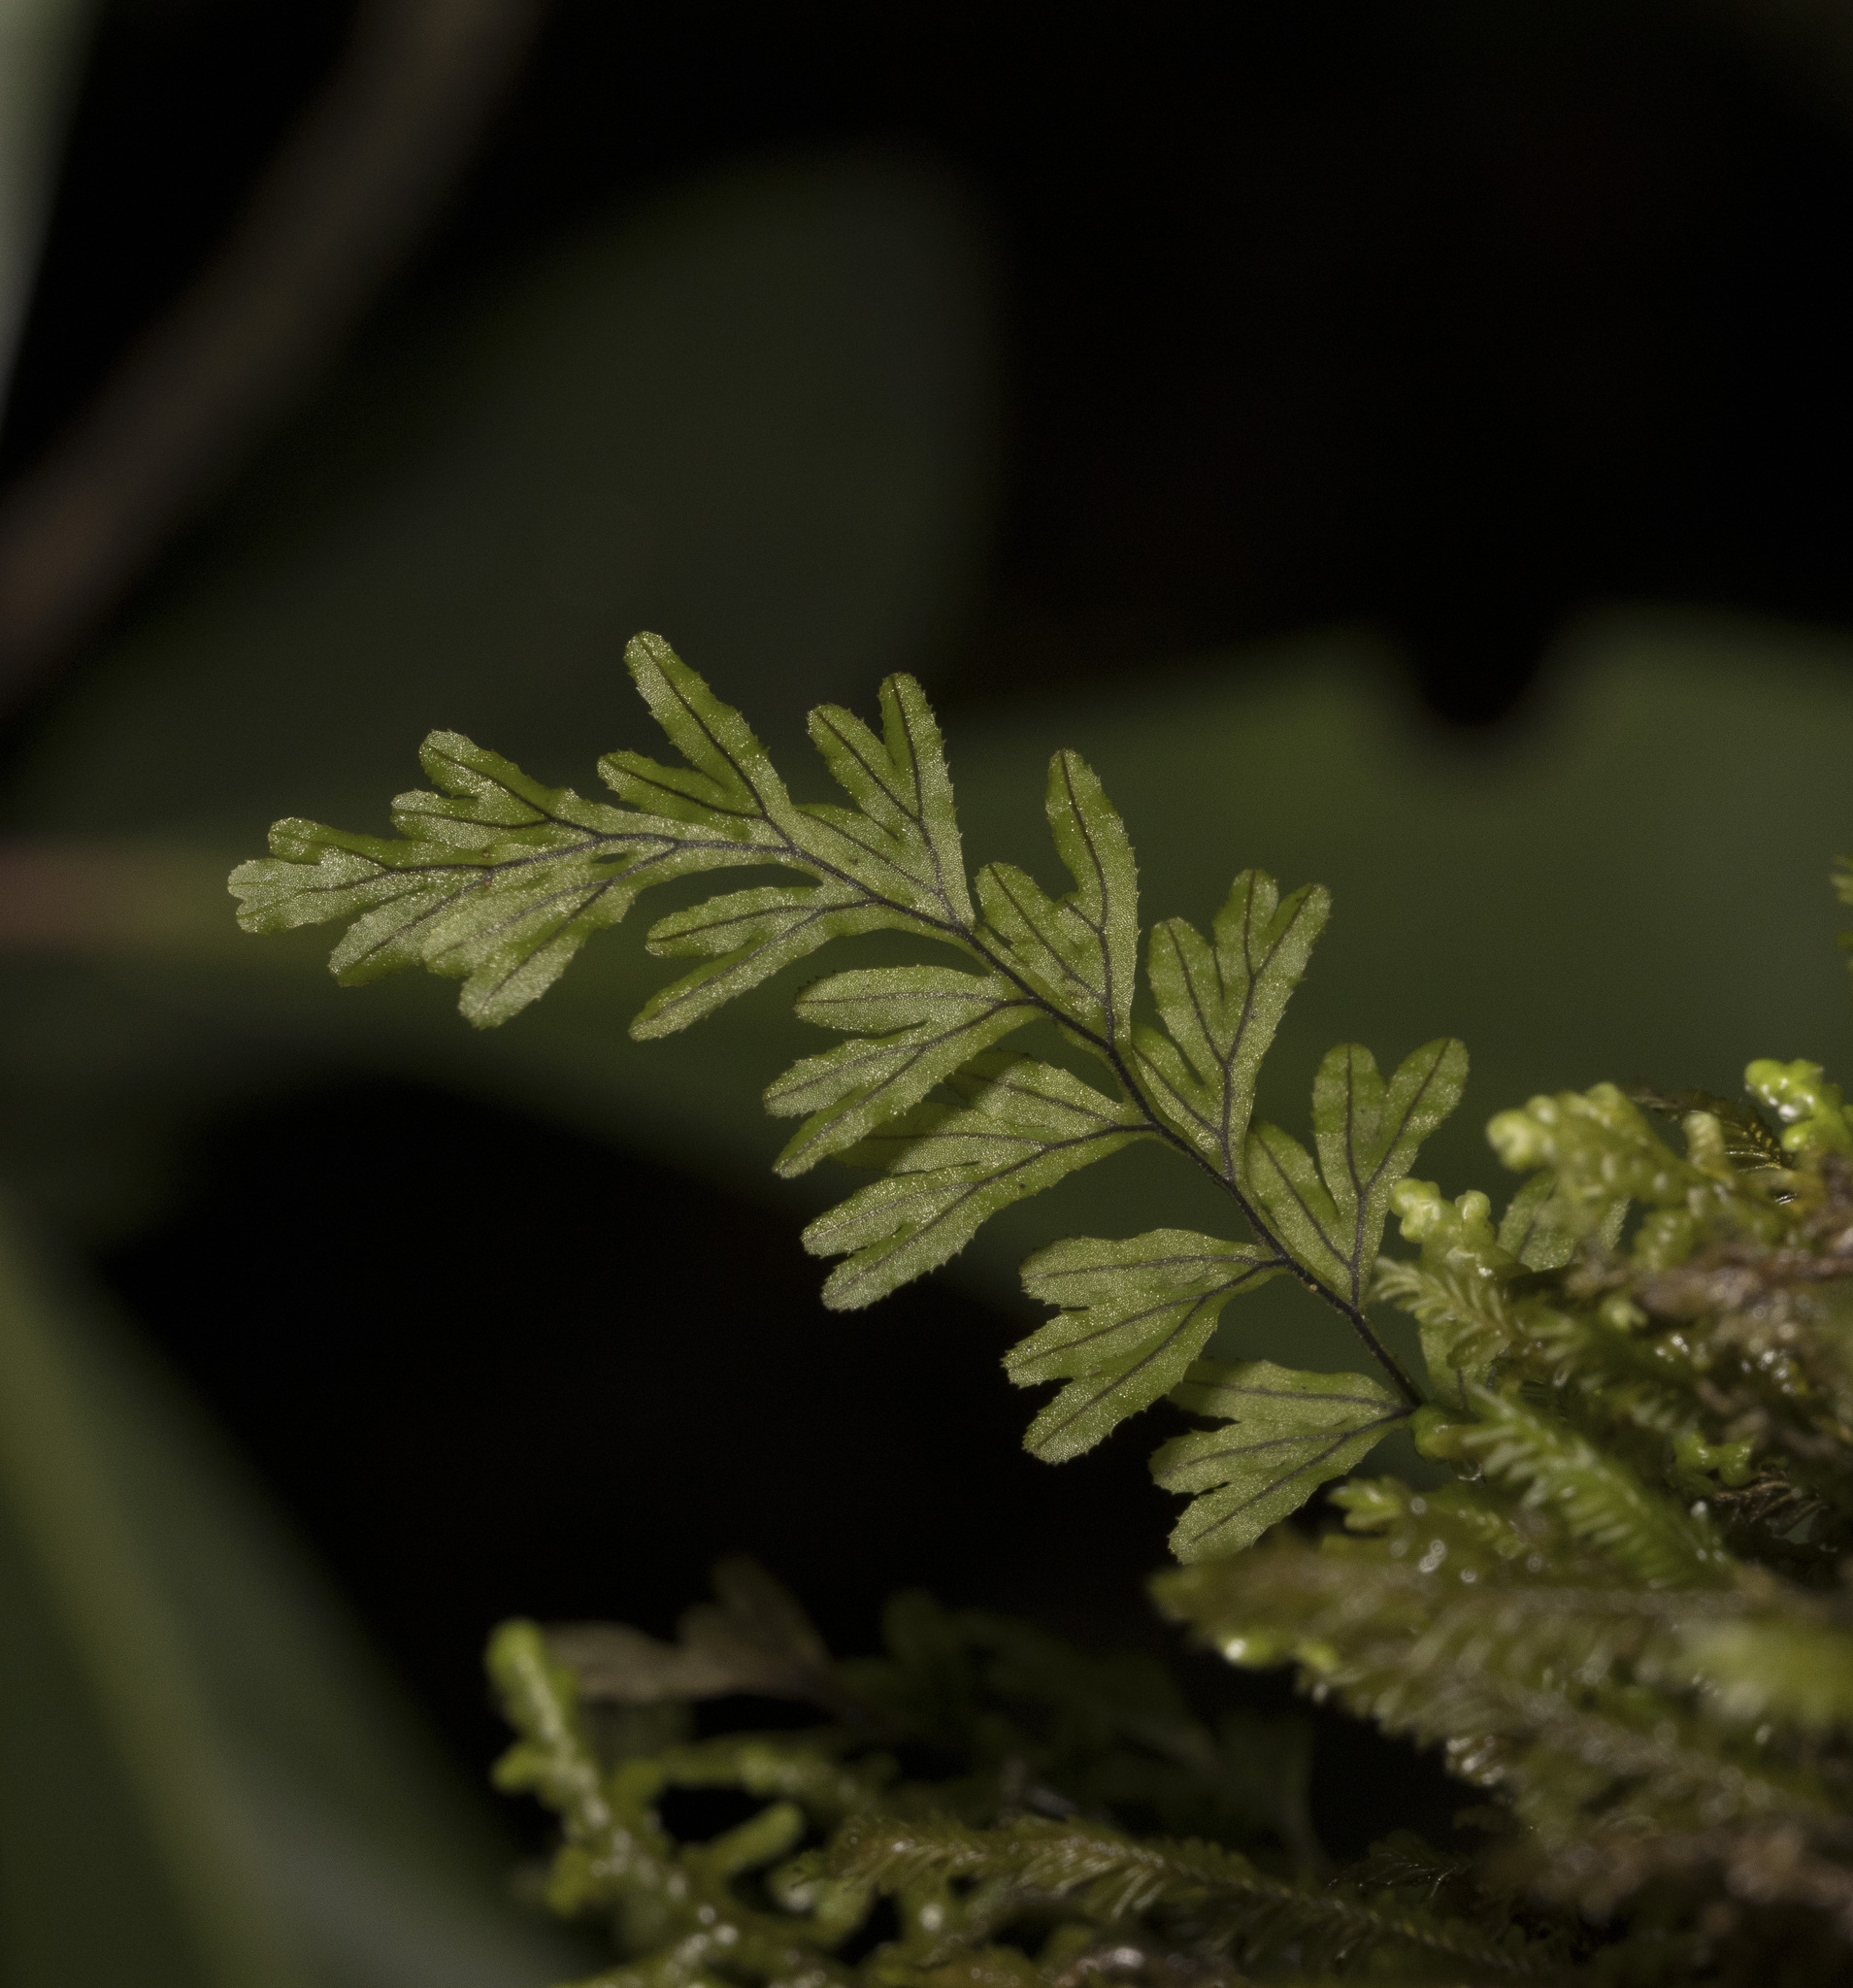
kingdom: Plantae
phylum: Tracheophyta
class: Polypodiopsida
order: Hymenophyllales
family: Hymenophyllaceae
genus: Hymenophyllum
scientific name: Hymenophyllum peltatum
